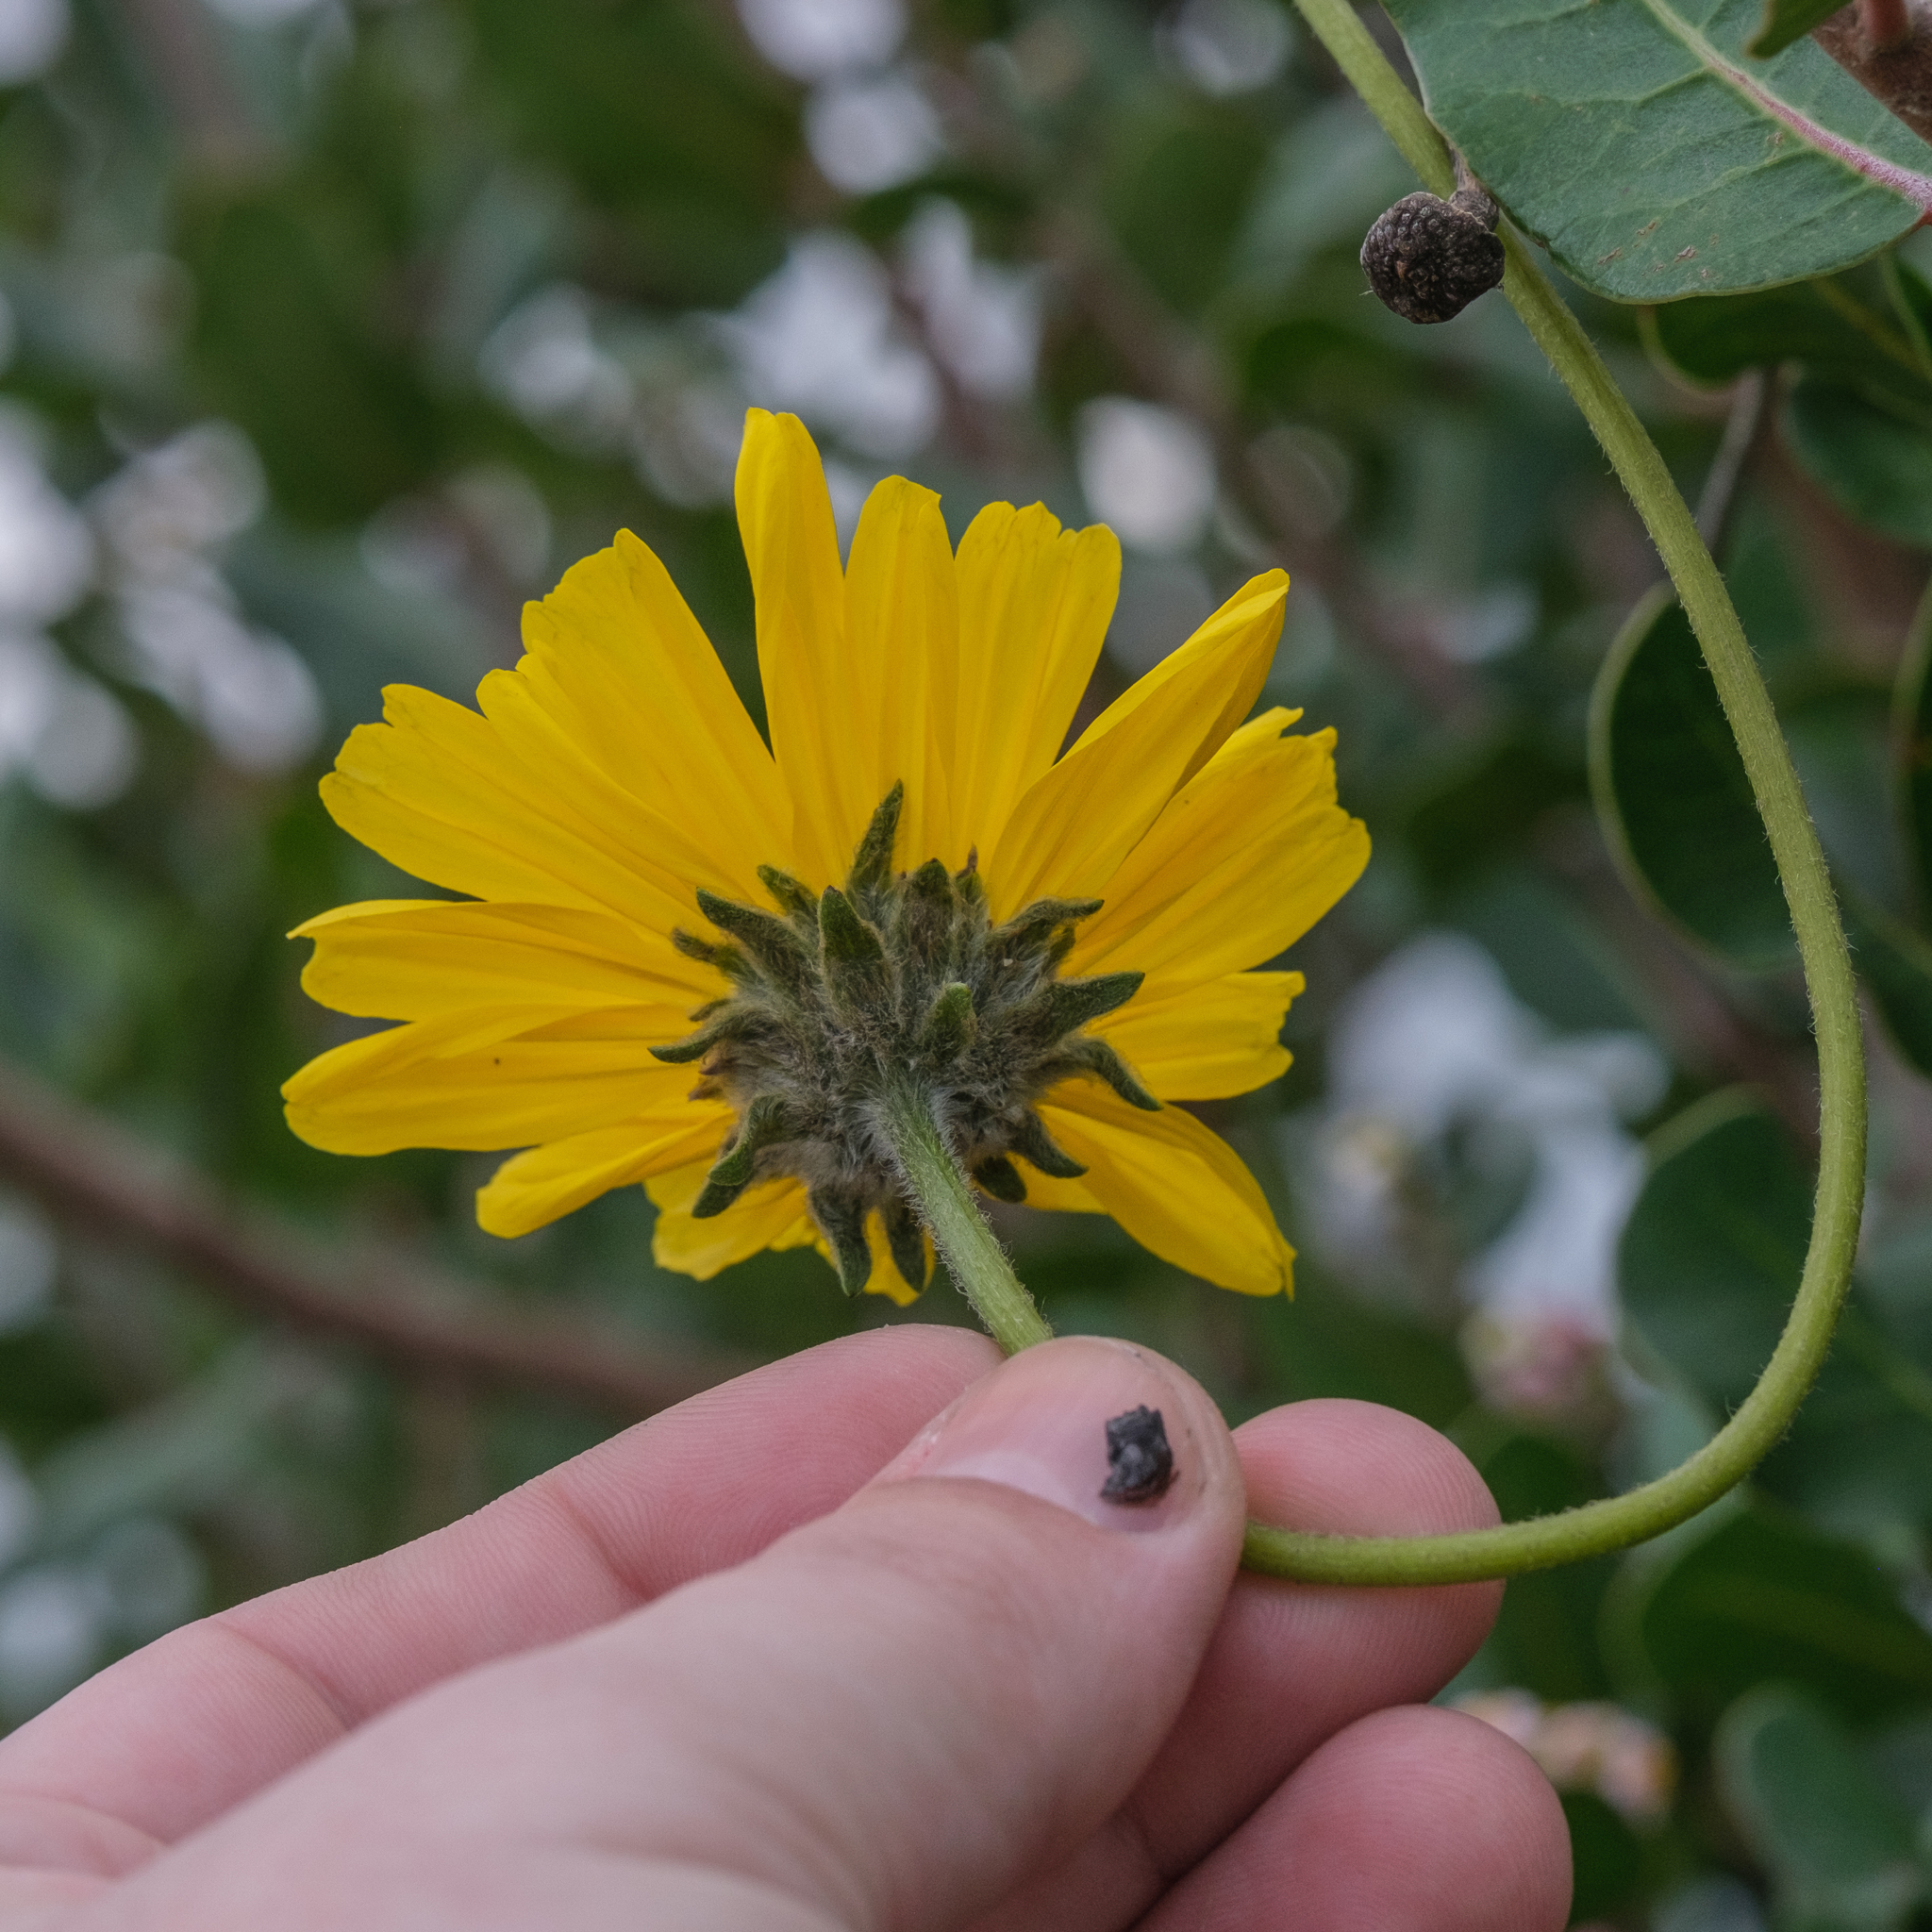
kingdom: Plantae
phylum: Tracheophyta
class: Magnoliopsida
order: Asterales
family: Asteraceae
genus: Encelia
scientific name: Encelia californica
